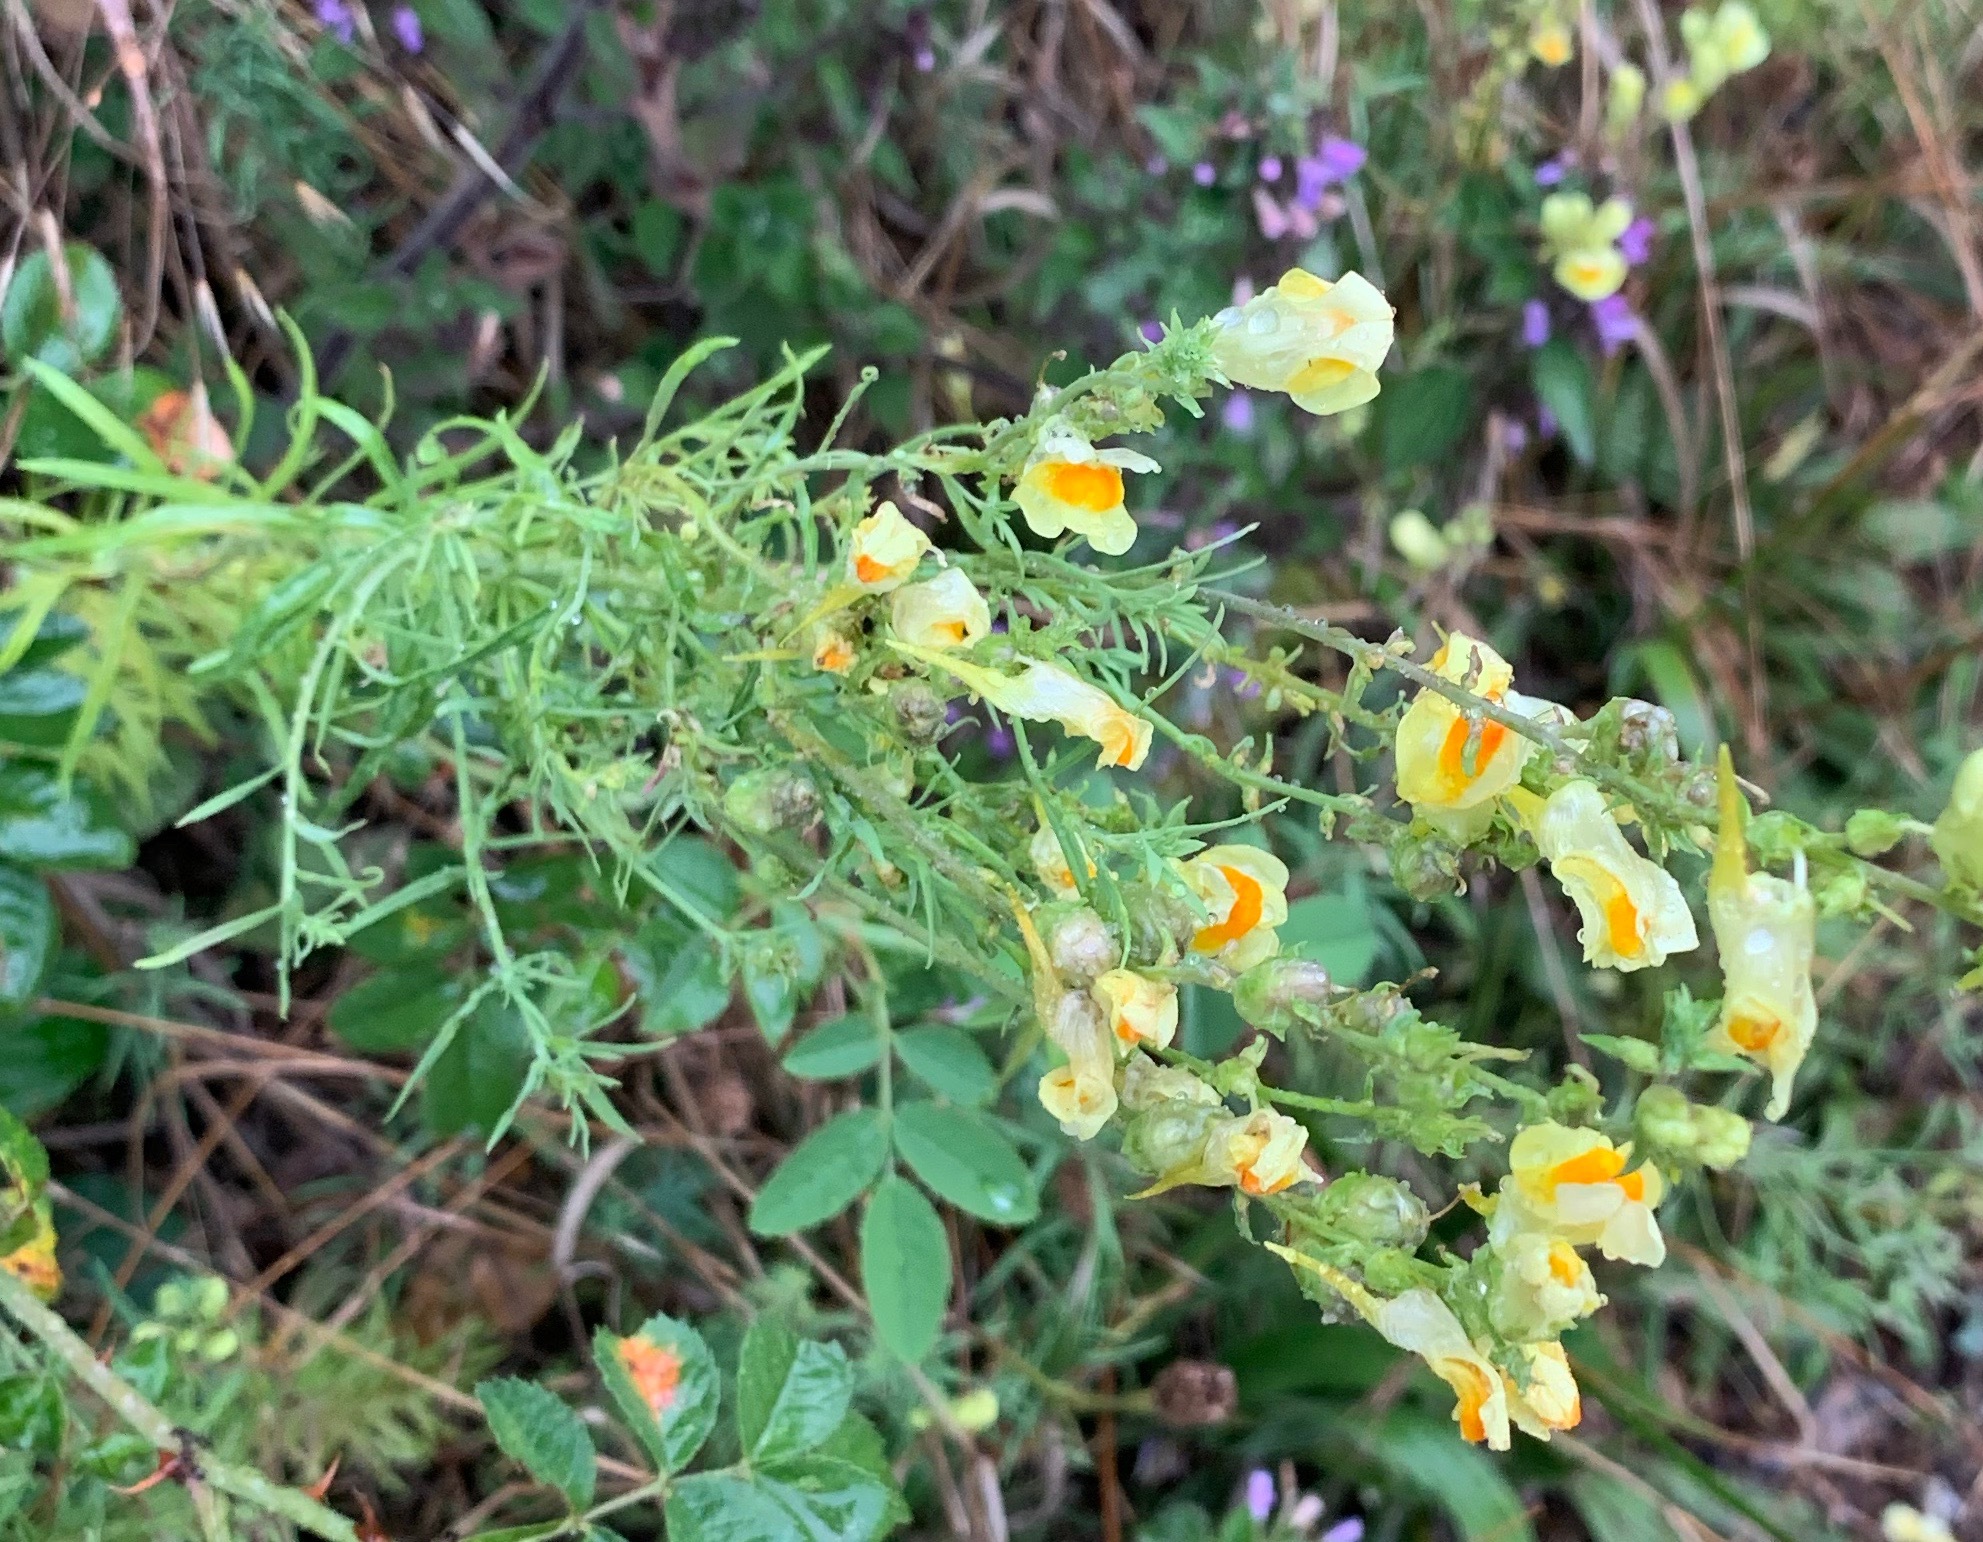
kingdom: Plantae
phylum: Tracheophyta
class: Magnoliopsida
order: Lamiales
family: Plantaginaceae
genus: Linaria
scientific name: Linaria vulgaris
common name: Butter and eggs
